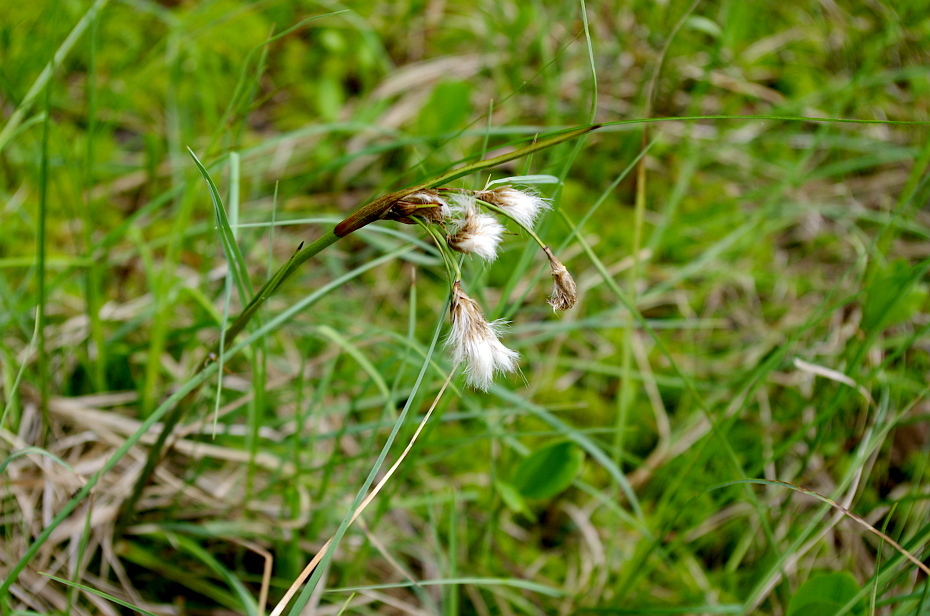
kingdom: Plantae
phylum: Tracheophyta
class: Liliopsida
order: Poales
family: Cyperaceae
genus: Eriophorum
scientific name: Eriophorum angustifolium
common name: Common cottongrass
